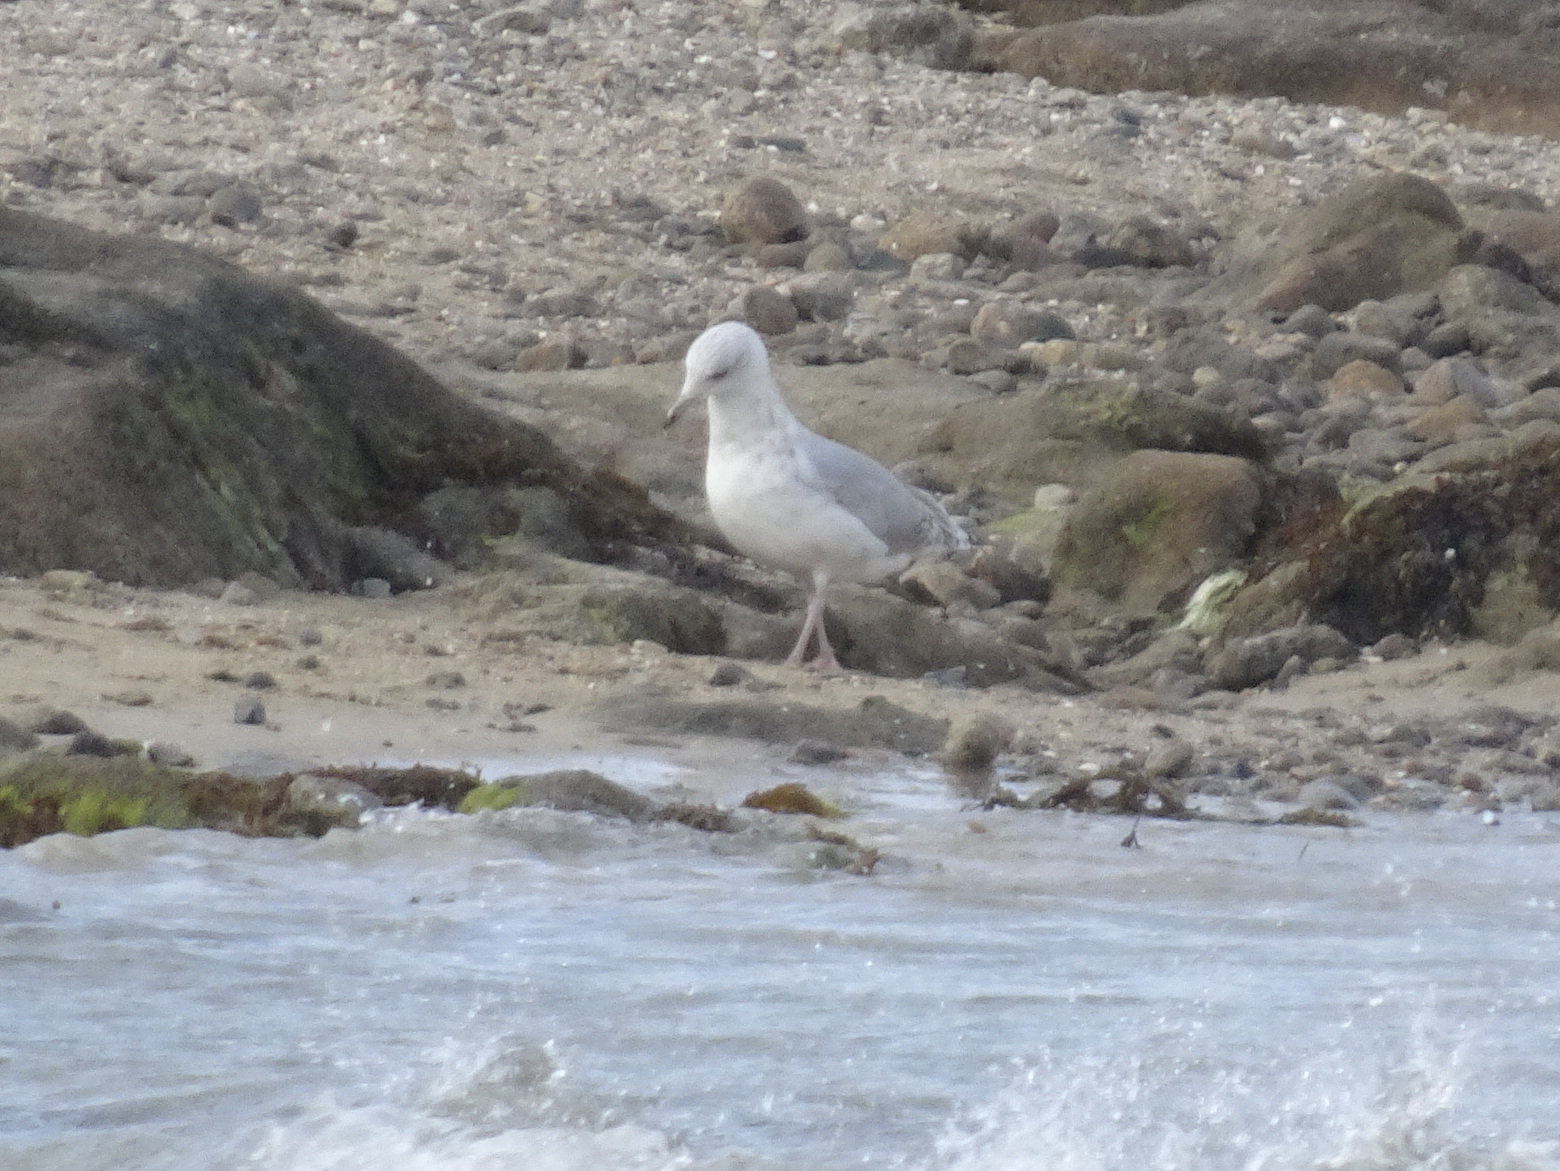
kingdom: Animalia
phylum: Chordata
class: Aves
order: Charadriiformes
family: Laridae
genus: Larus
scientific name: Larus argentatus
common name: Herring gull
